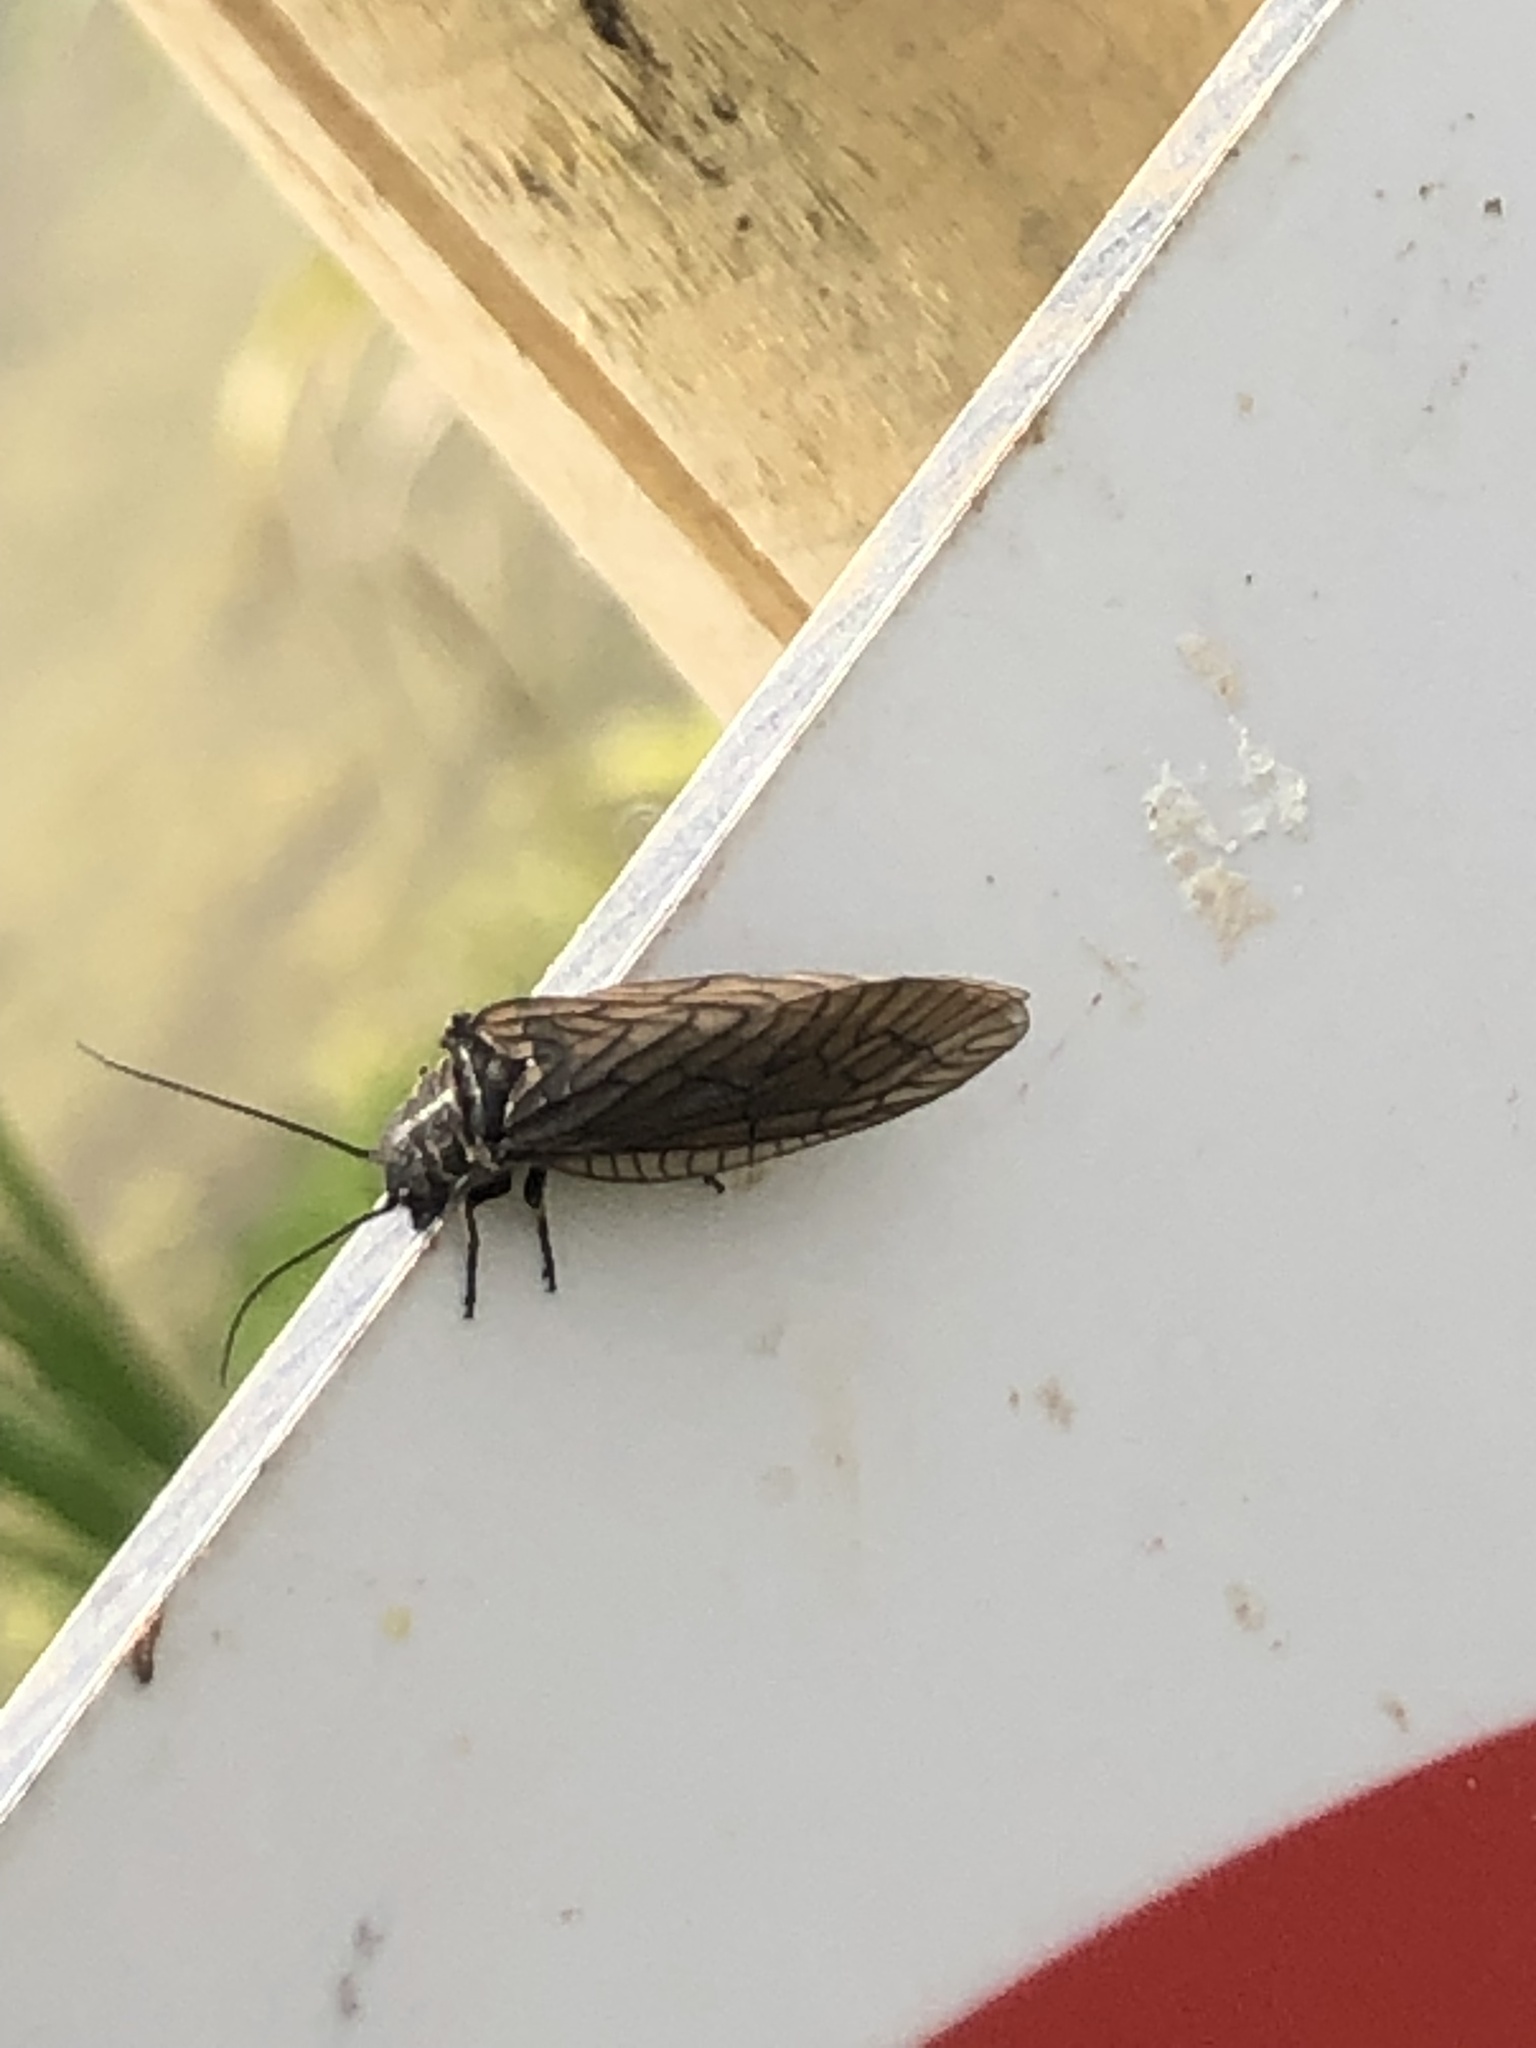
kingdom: Animalia
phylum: Arthropoda
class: Insecta
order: Megaloptera
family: Sialidae
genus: Sialis
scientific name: Sialis
